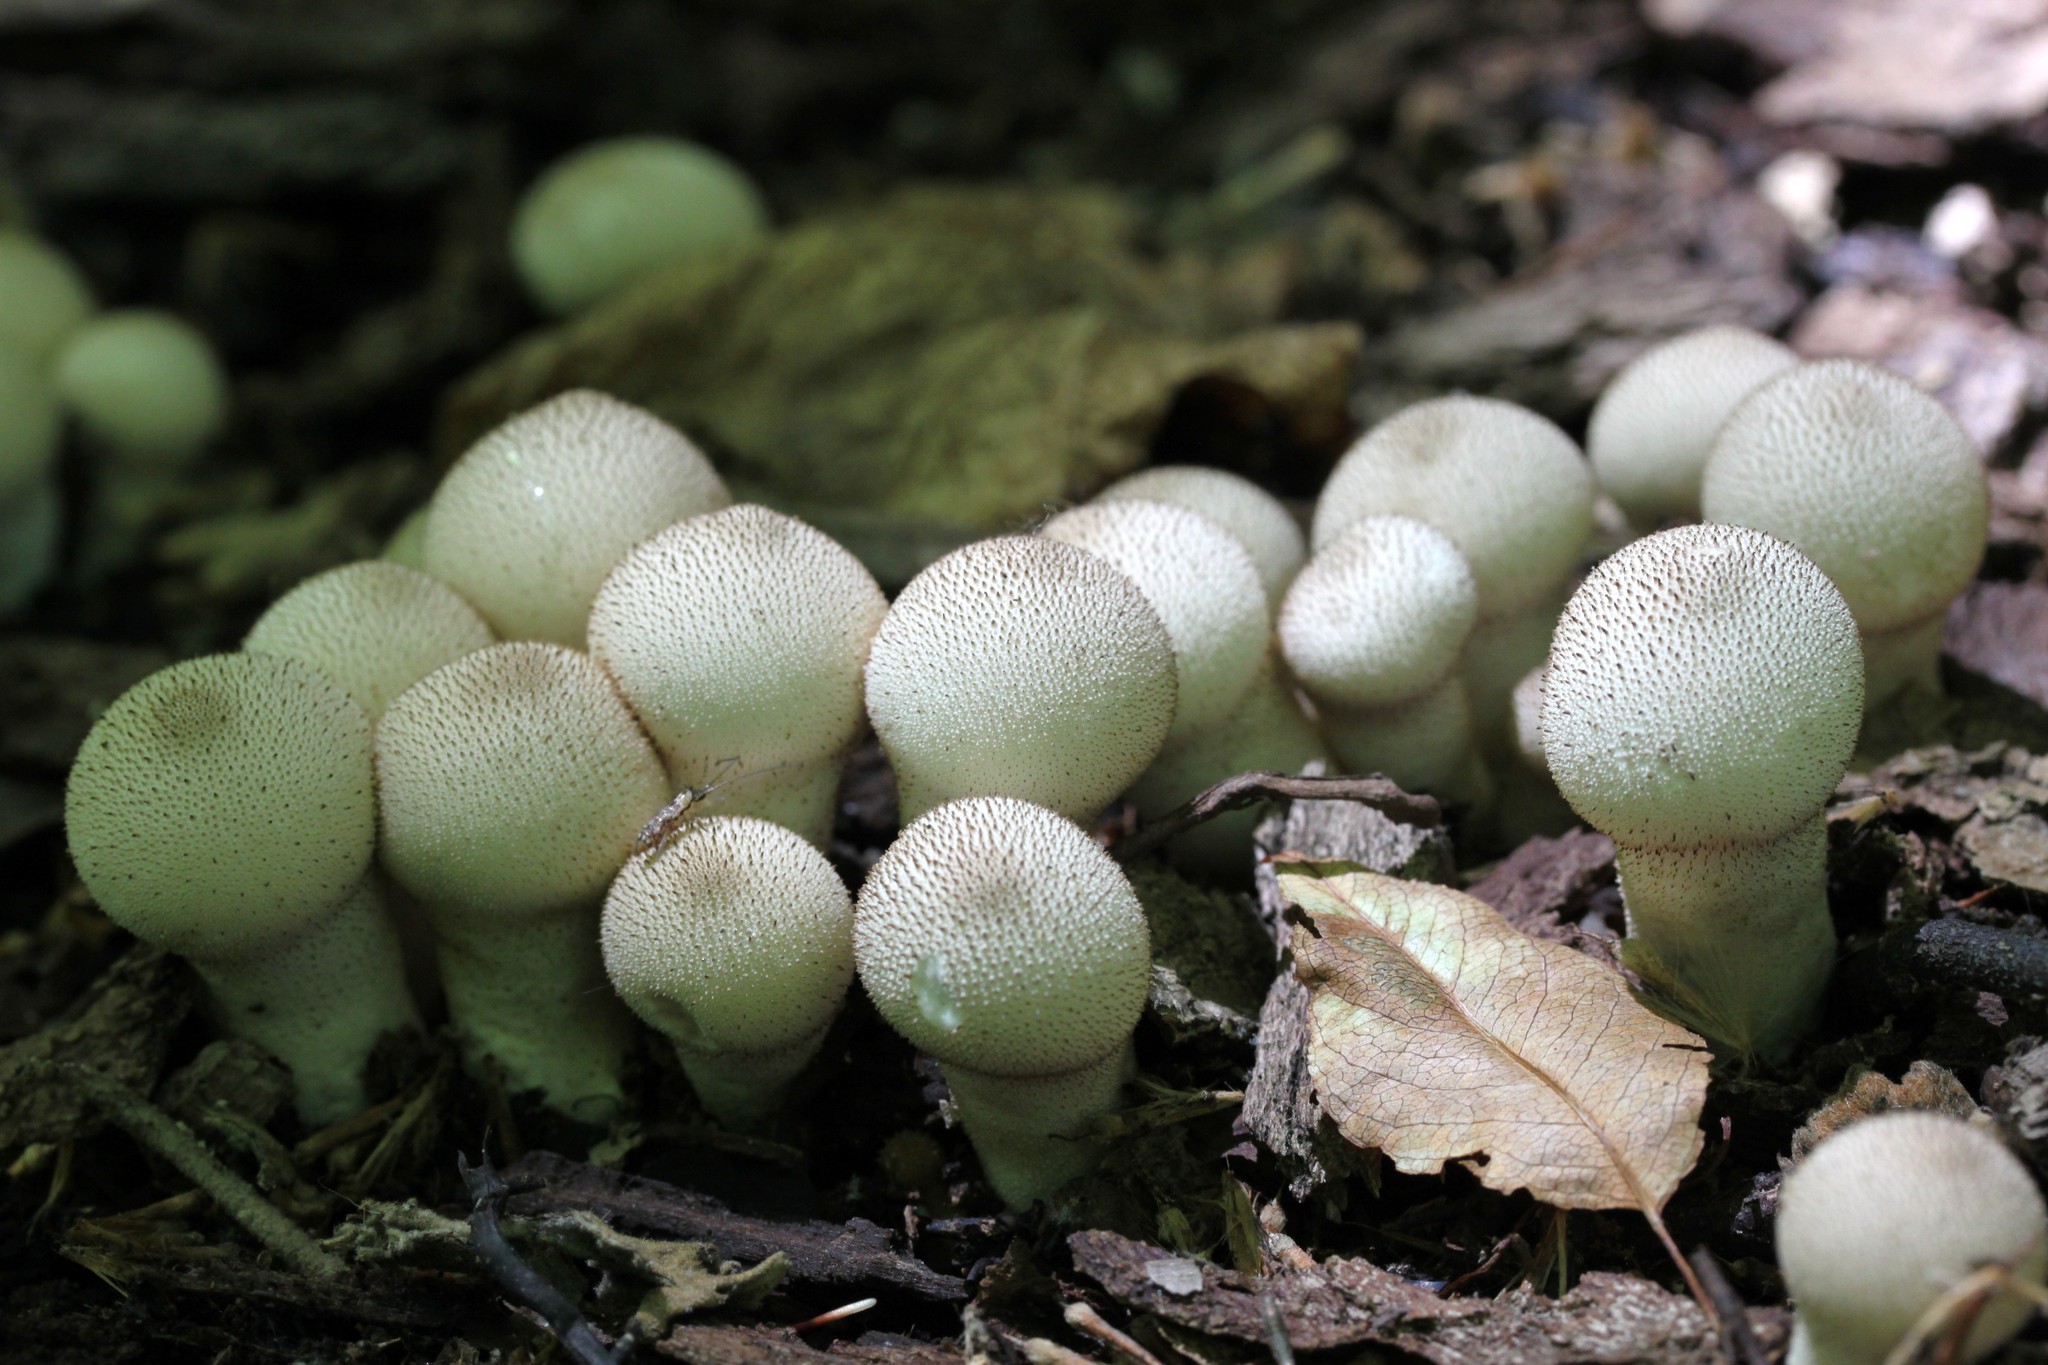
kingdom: Fungi
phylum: Basidiomycota
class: Agaricomycetes
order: Agaricales
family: Lycoperdaceae
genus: Lycoperdon
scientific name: Lycoperdon perlatum
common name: Common puffball
